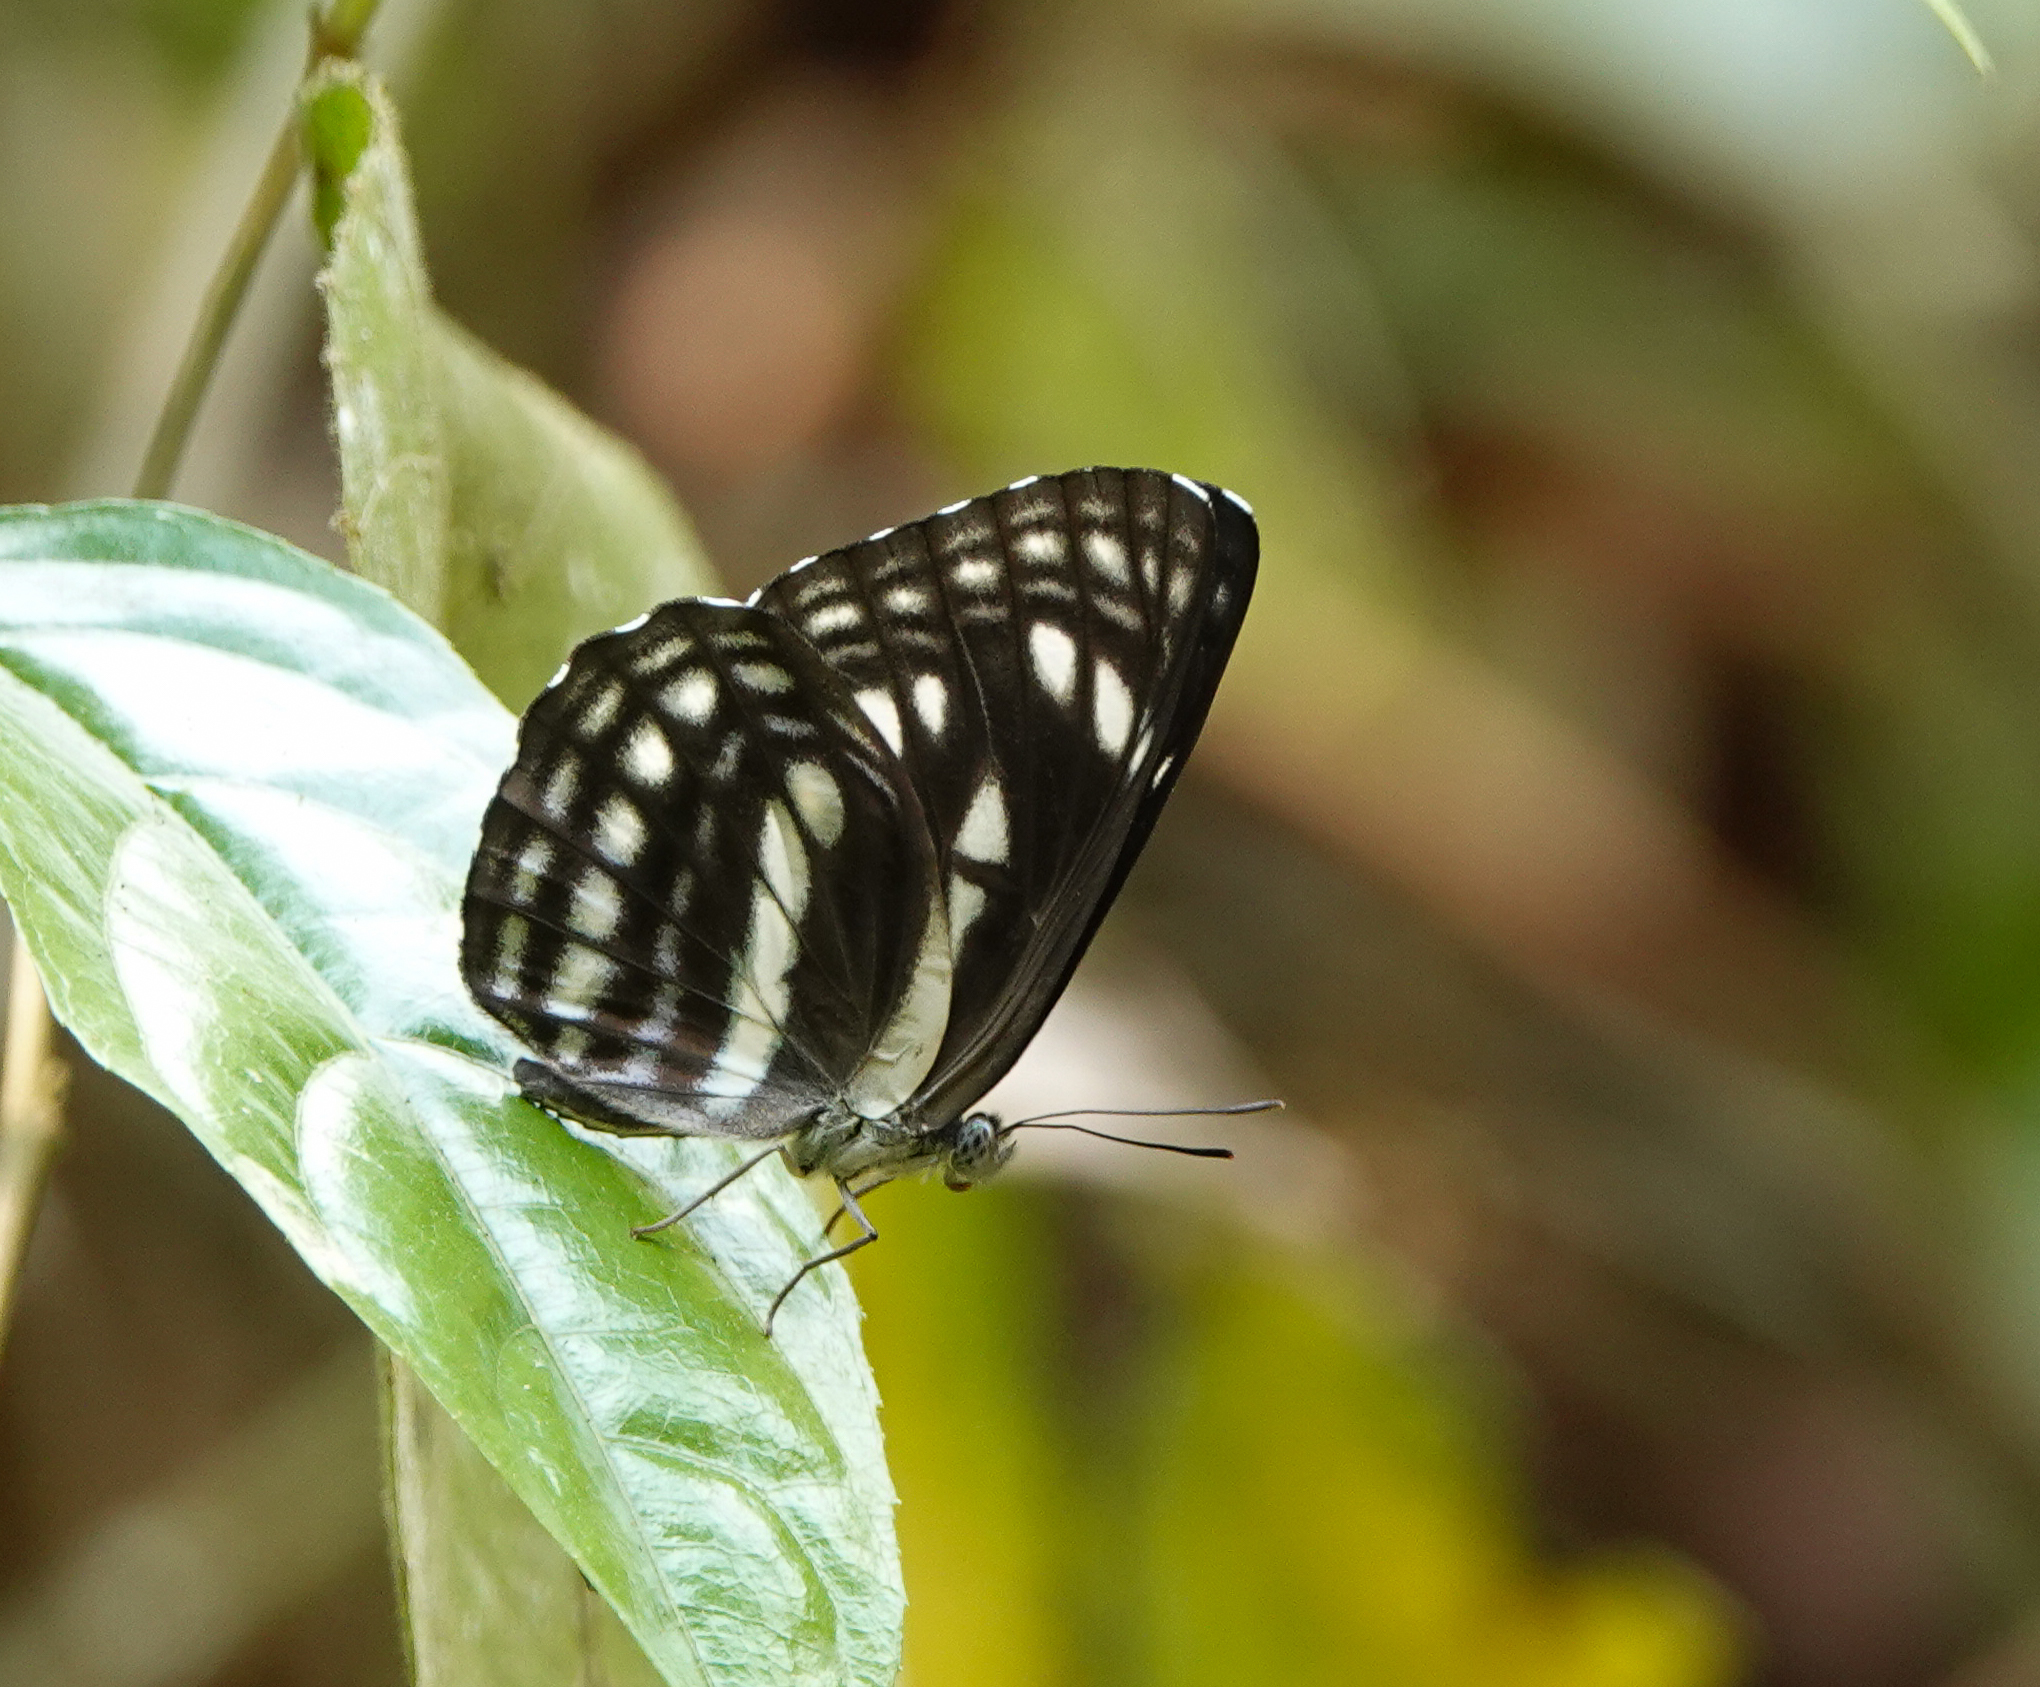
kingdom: Animalia
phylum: Arthropoda
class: Insecta
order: Lepidoptera
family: Nymphalidae
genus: Neptis
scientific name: Neptis magadha
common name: Spotted sailer
